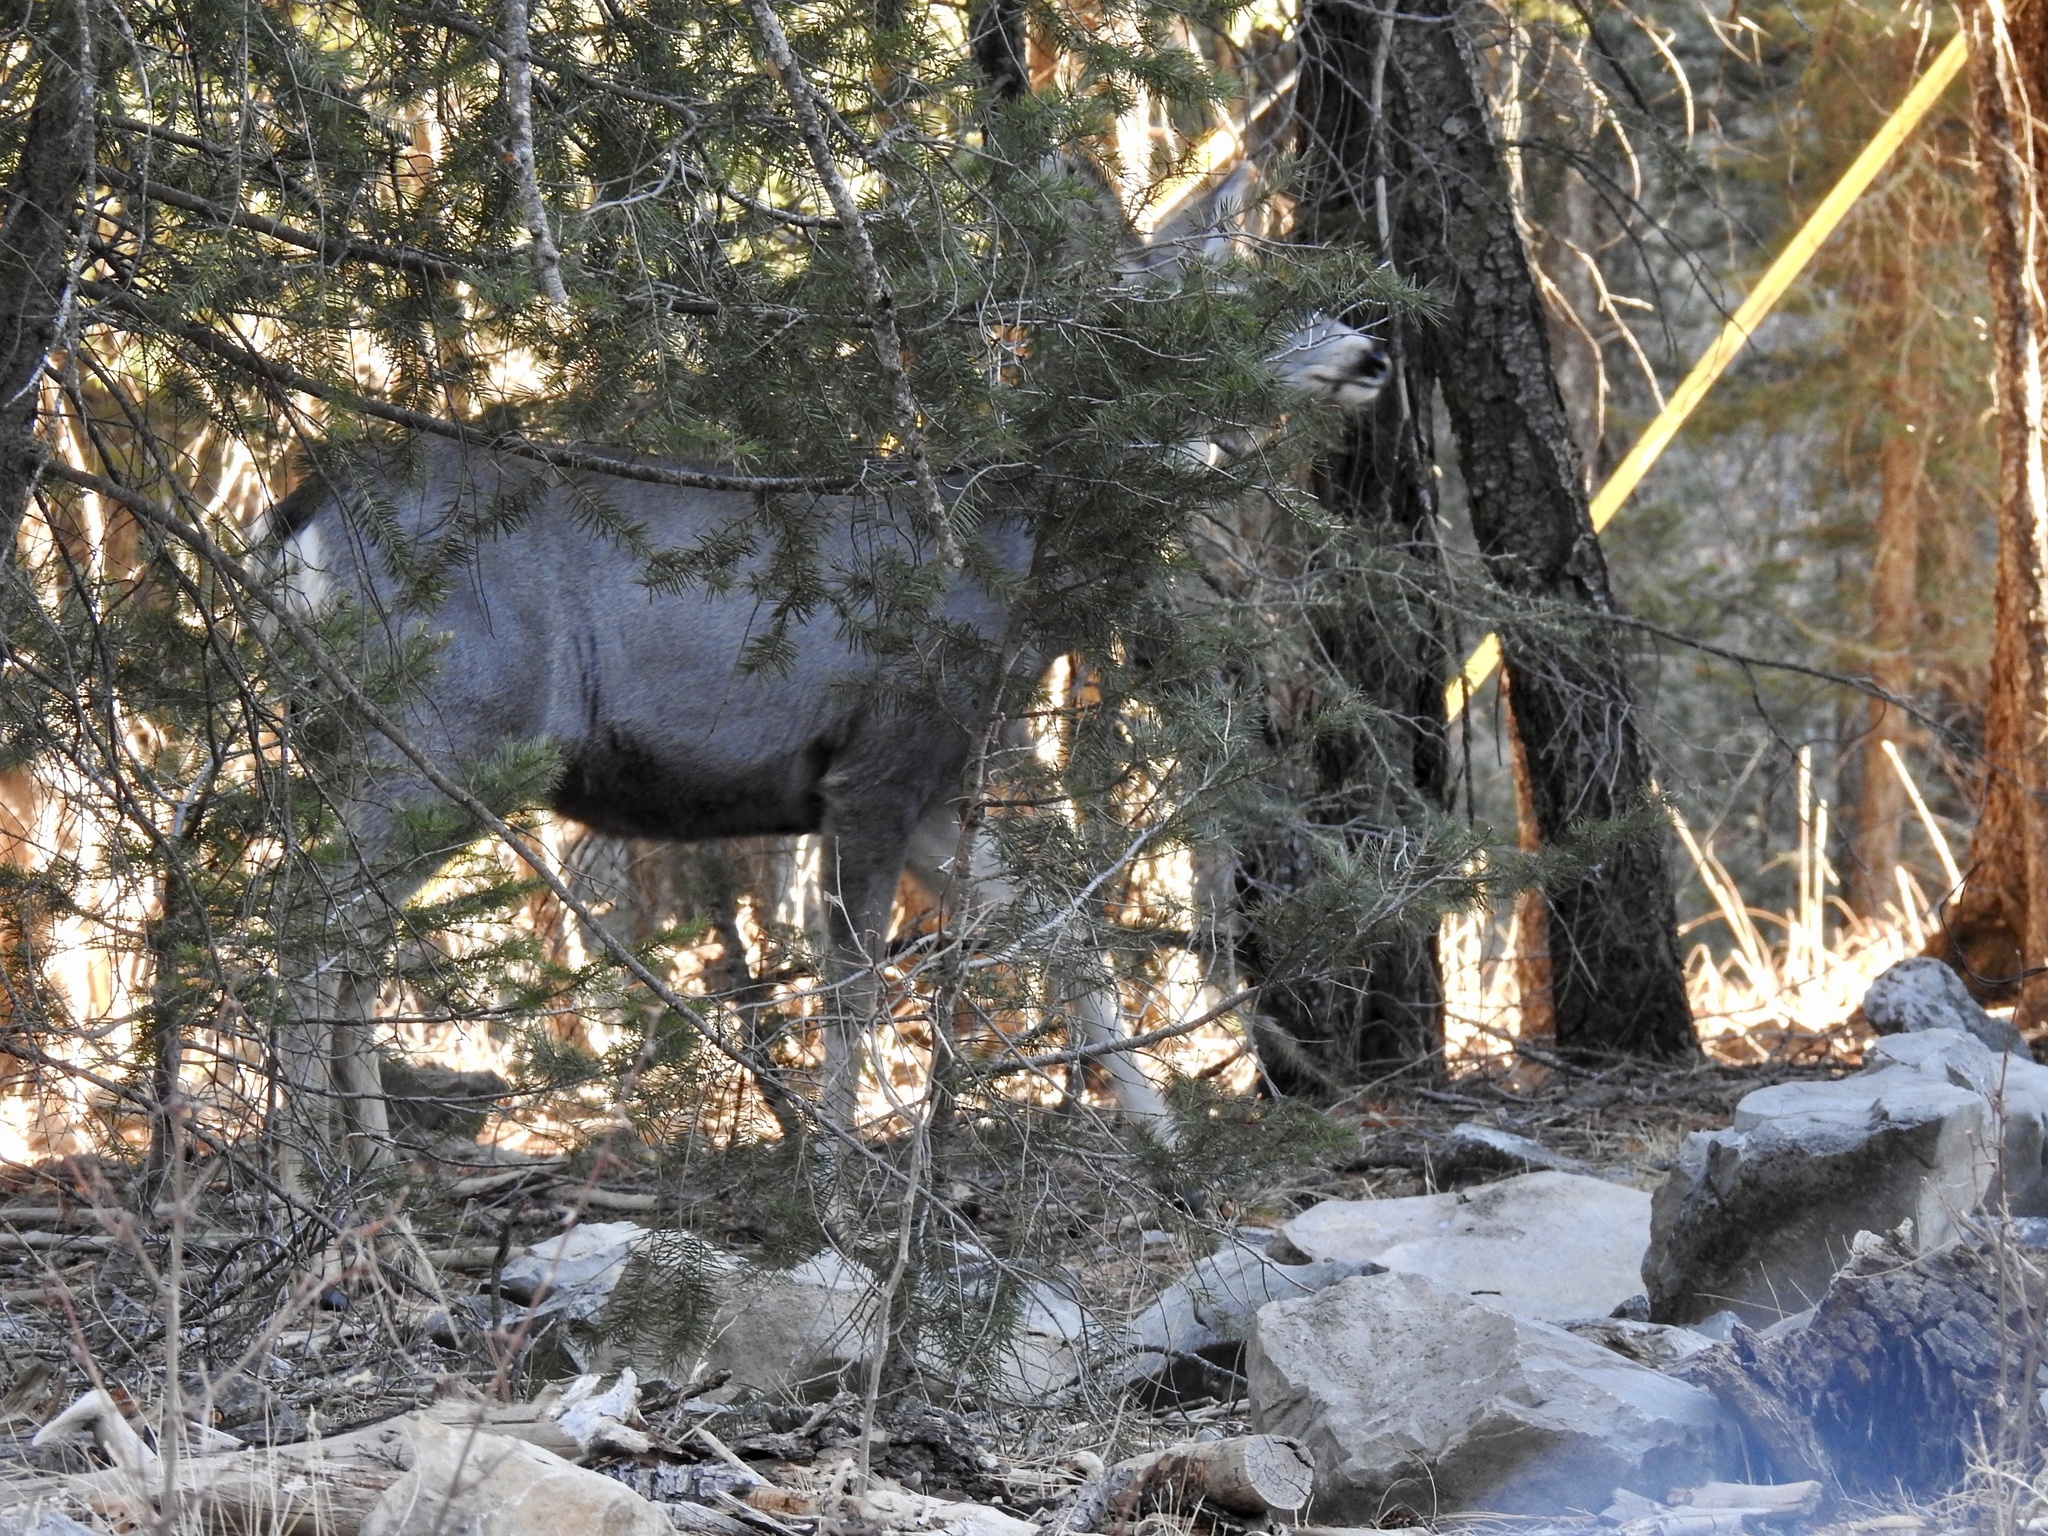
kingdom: Animalia
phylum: Chordata
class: Mammalia
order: Artiodactyla
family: Cervidae
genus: Odocoileus
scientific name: Odocoileus hemionus
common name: Mule deer
